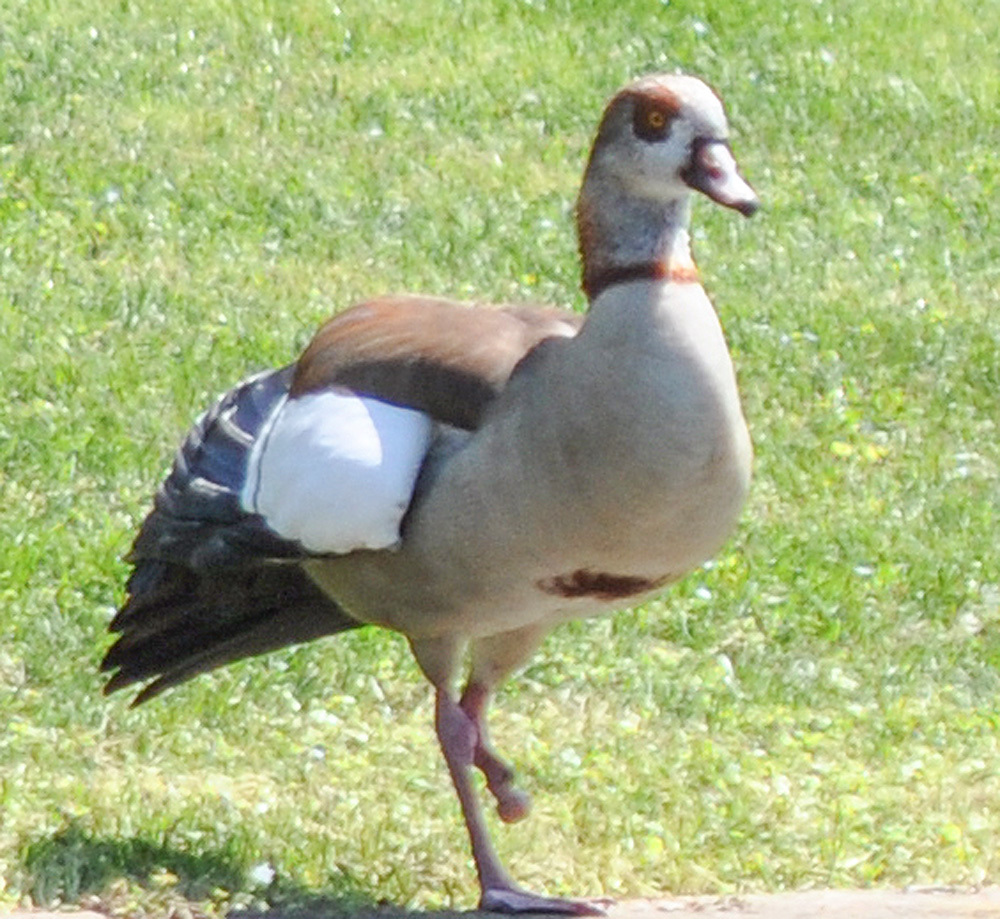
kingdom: Animalia
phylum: Chordata
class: Aves
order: Anseriformes
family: Anatidae
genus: Alopochen
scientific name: Alopochen aegyptiaca
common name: Egyptian goose
